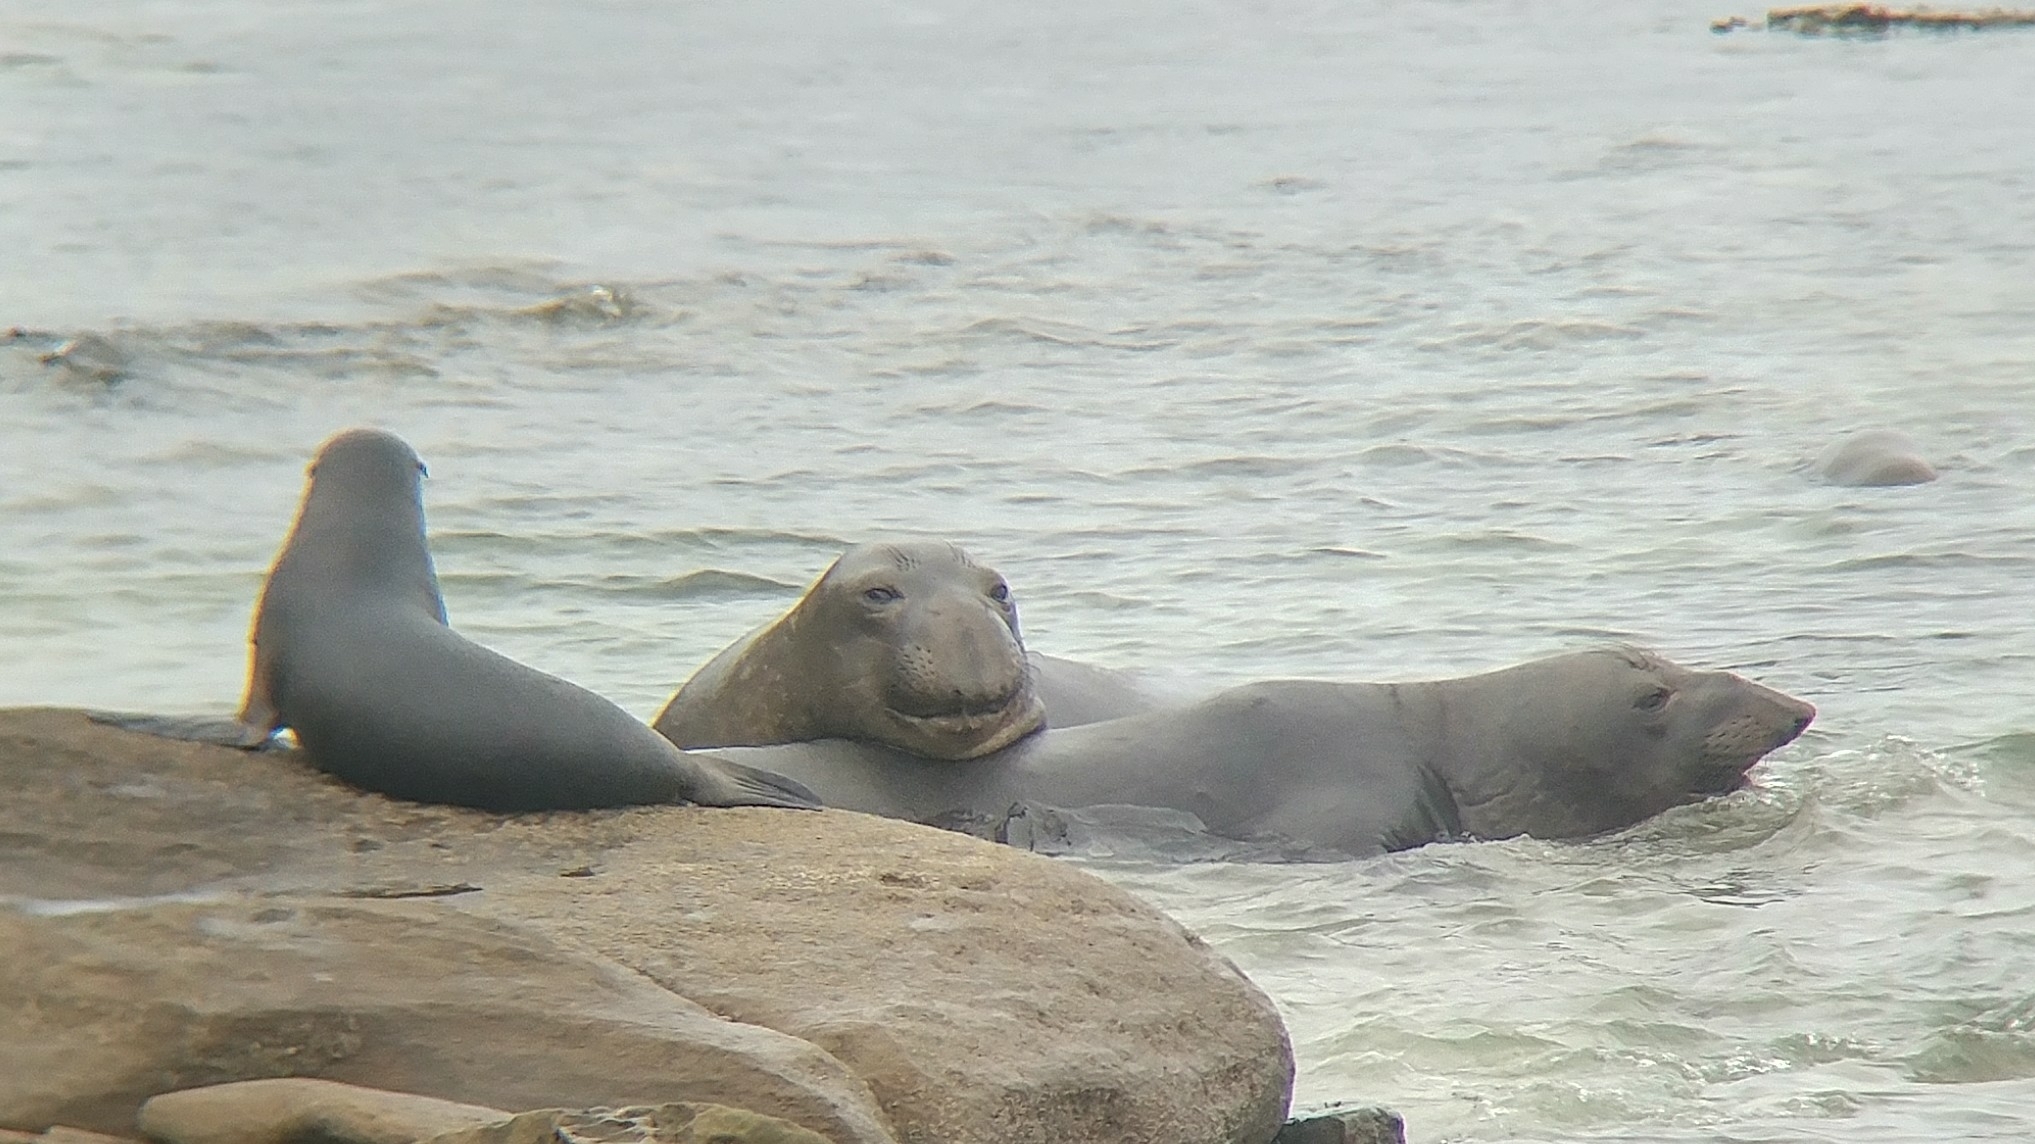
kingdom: Animalia
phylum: Chordata
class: Mammalia
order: Carnivora
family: Phocidae
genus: Mirounga
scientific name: Mirounga angustirostris
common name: Northern elephant seal
